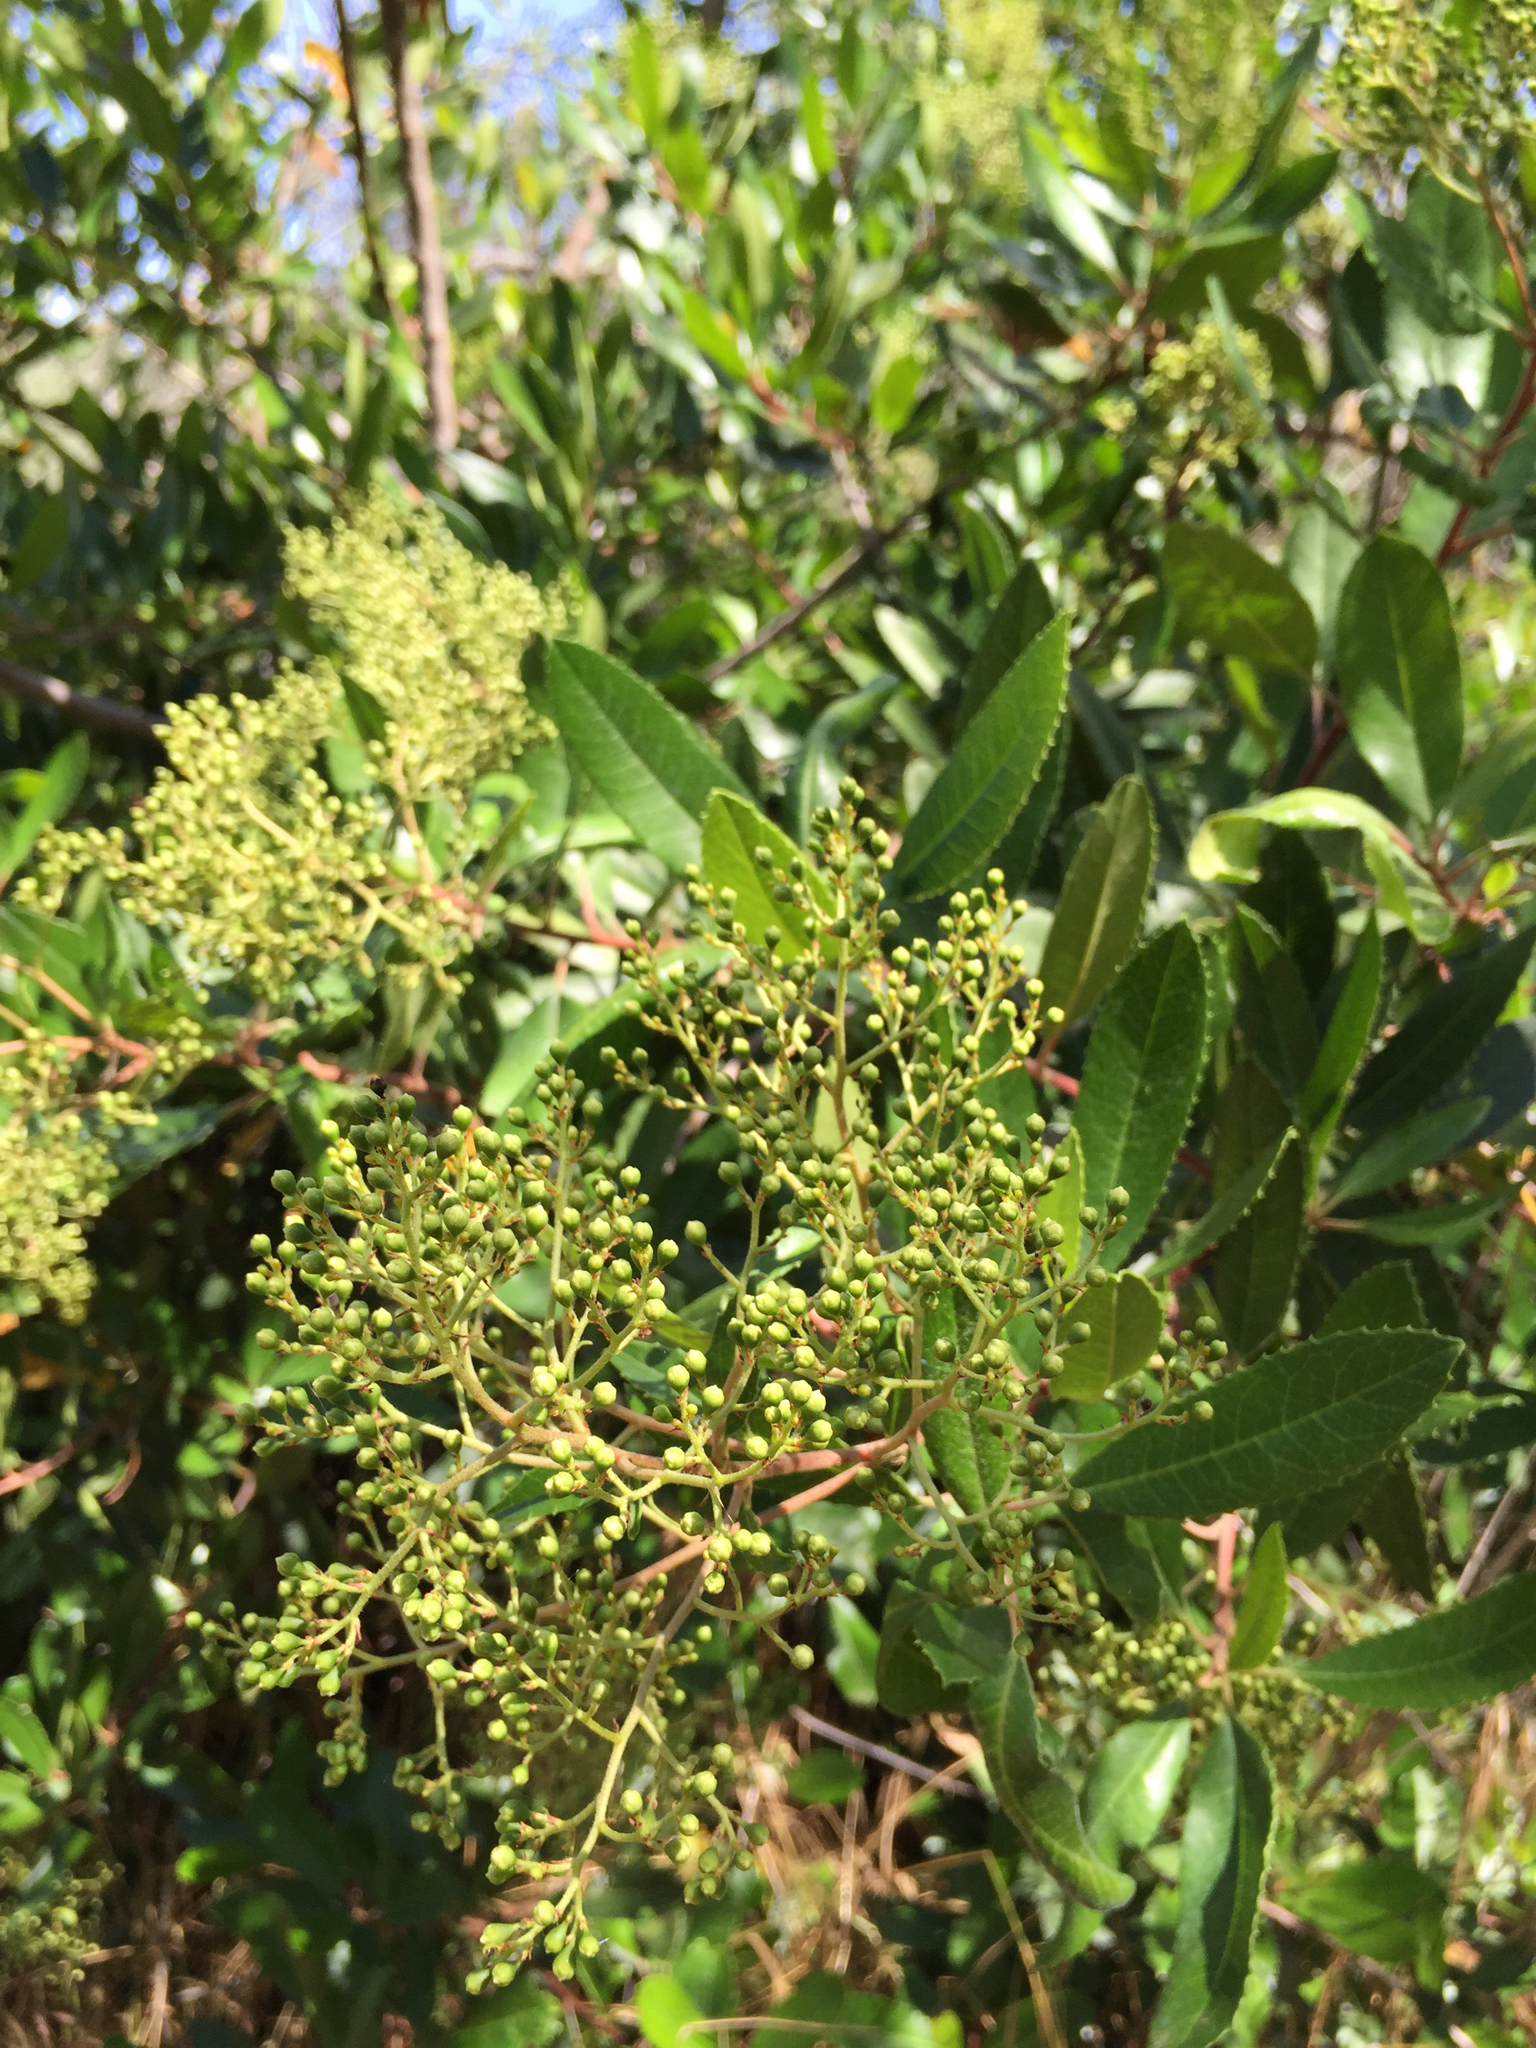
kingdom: Plantae
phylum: Tracheophyta
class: Magnoliopsida
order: Rosales
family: Rosaceae
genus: Heteromeles
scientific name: Heteromeles arbutifolia
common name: California-holly
